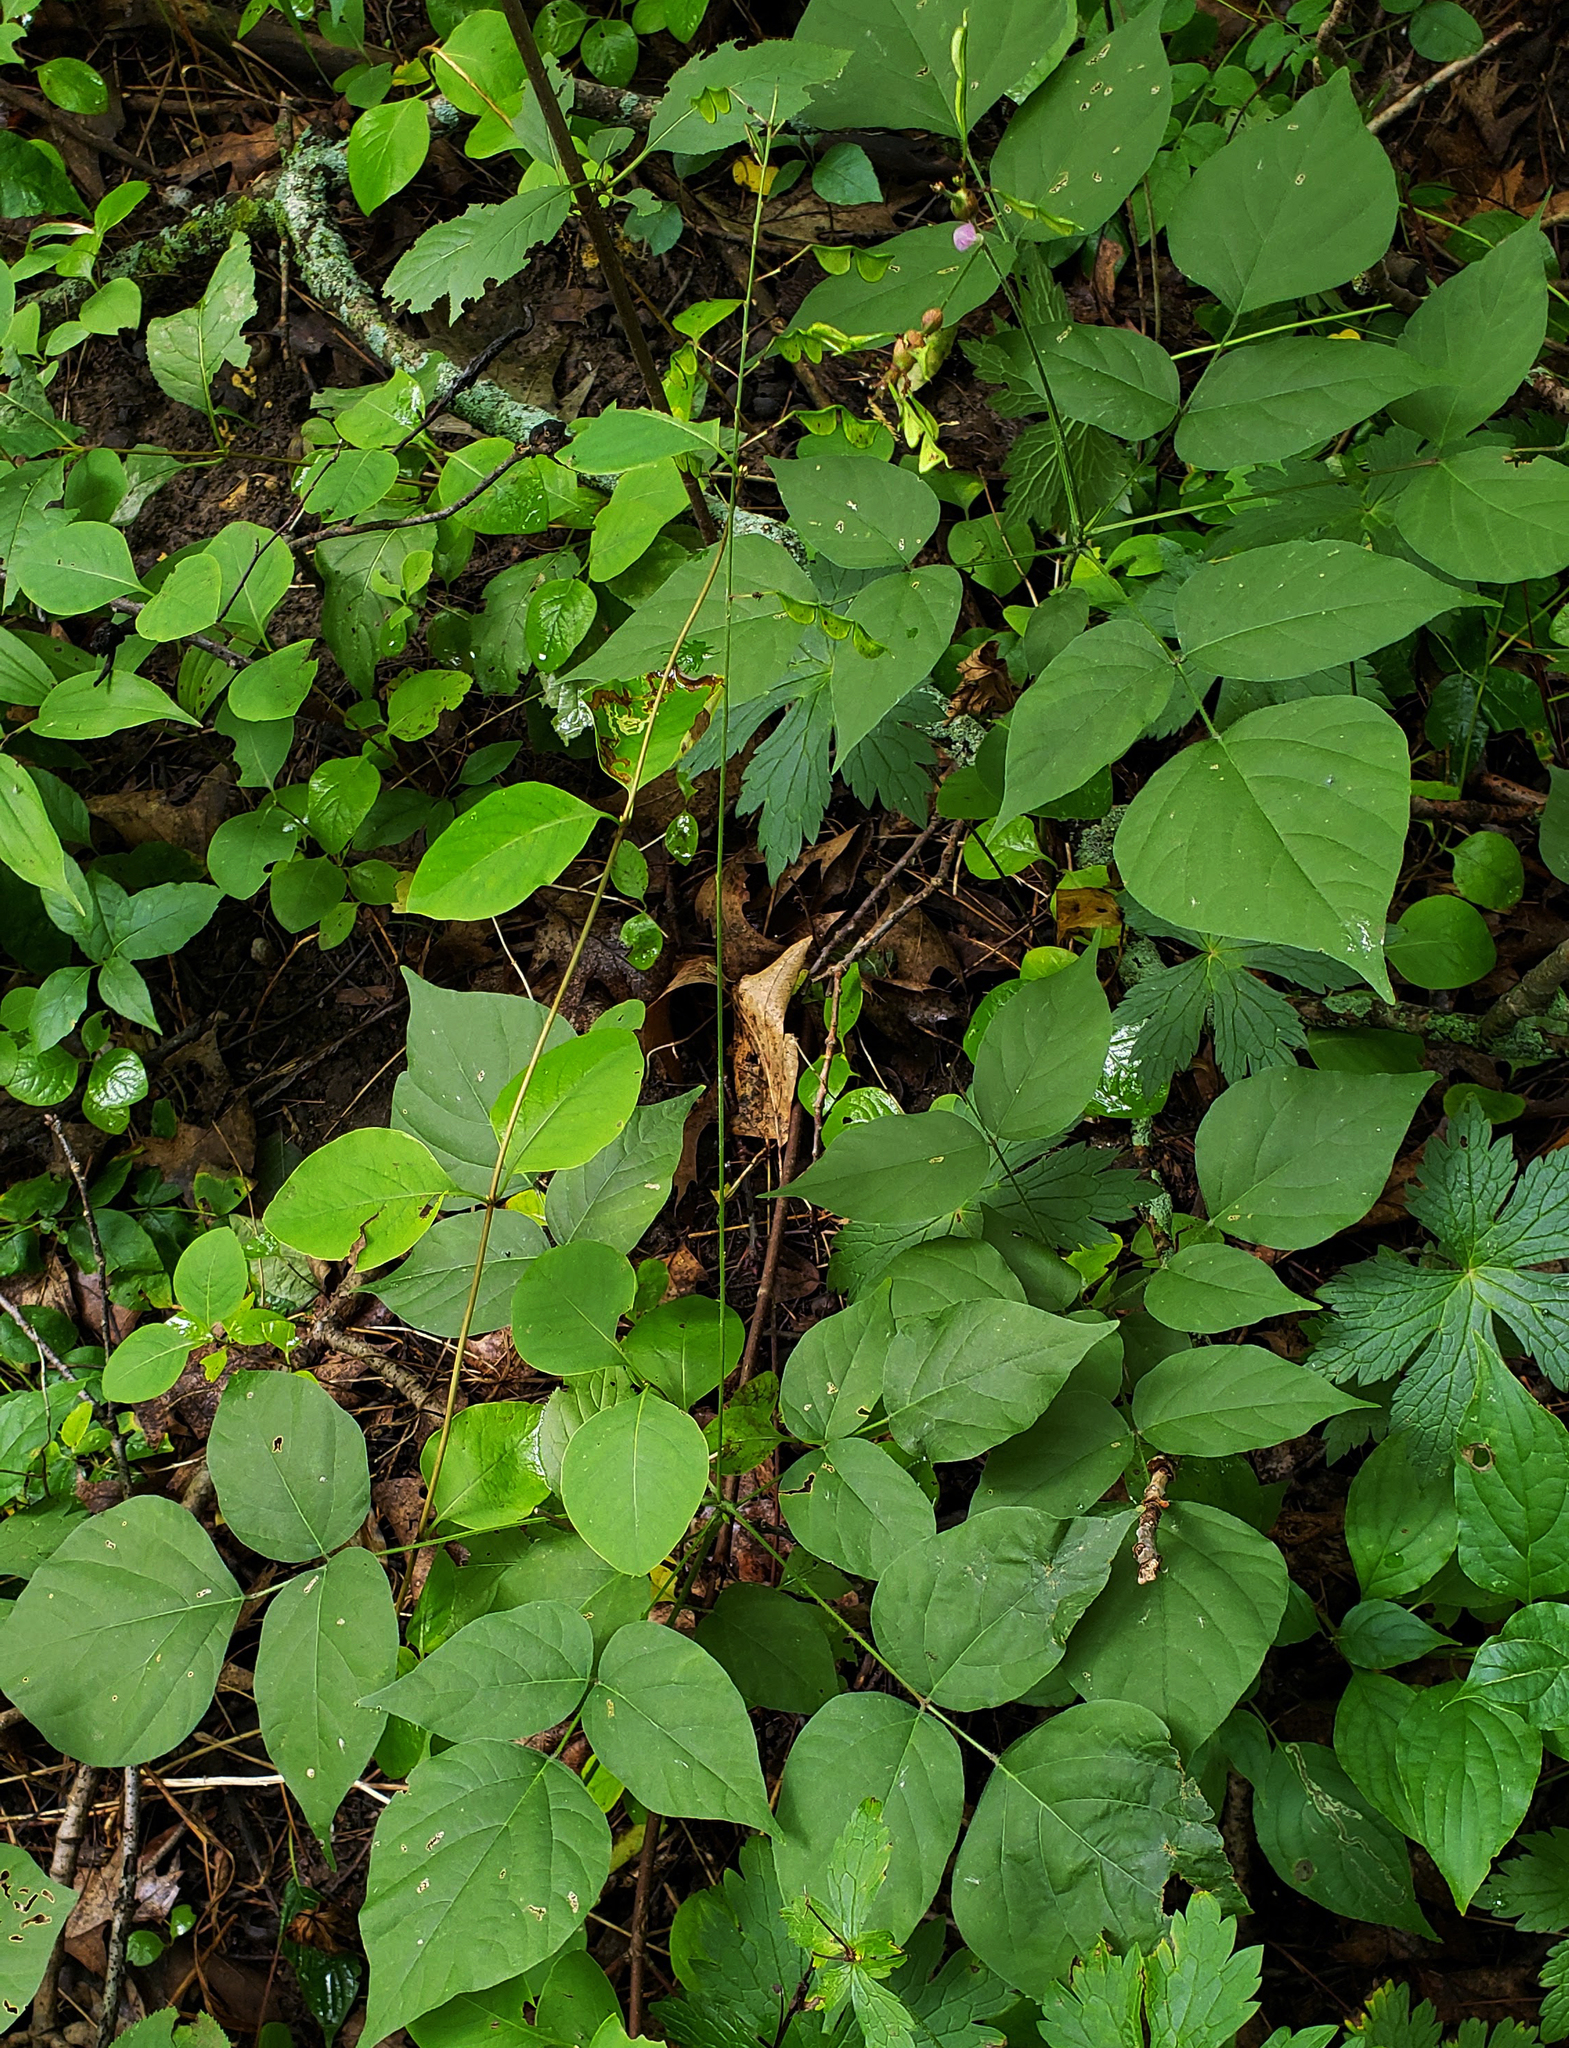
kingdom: Plantae
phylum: Tracheophyta
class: Magnoliopsida
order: Fabales
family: Fabaceae
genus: Hylodesmum
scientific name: Hylodesmum glutinosum
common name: Clustered-leaved tick-trefoil
